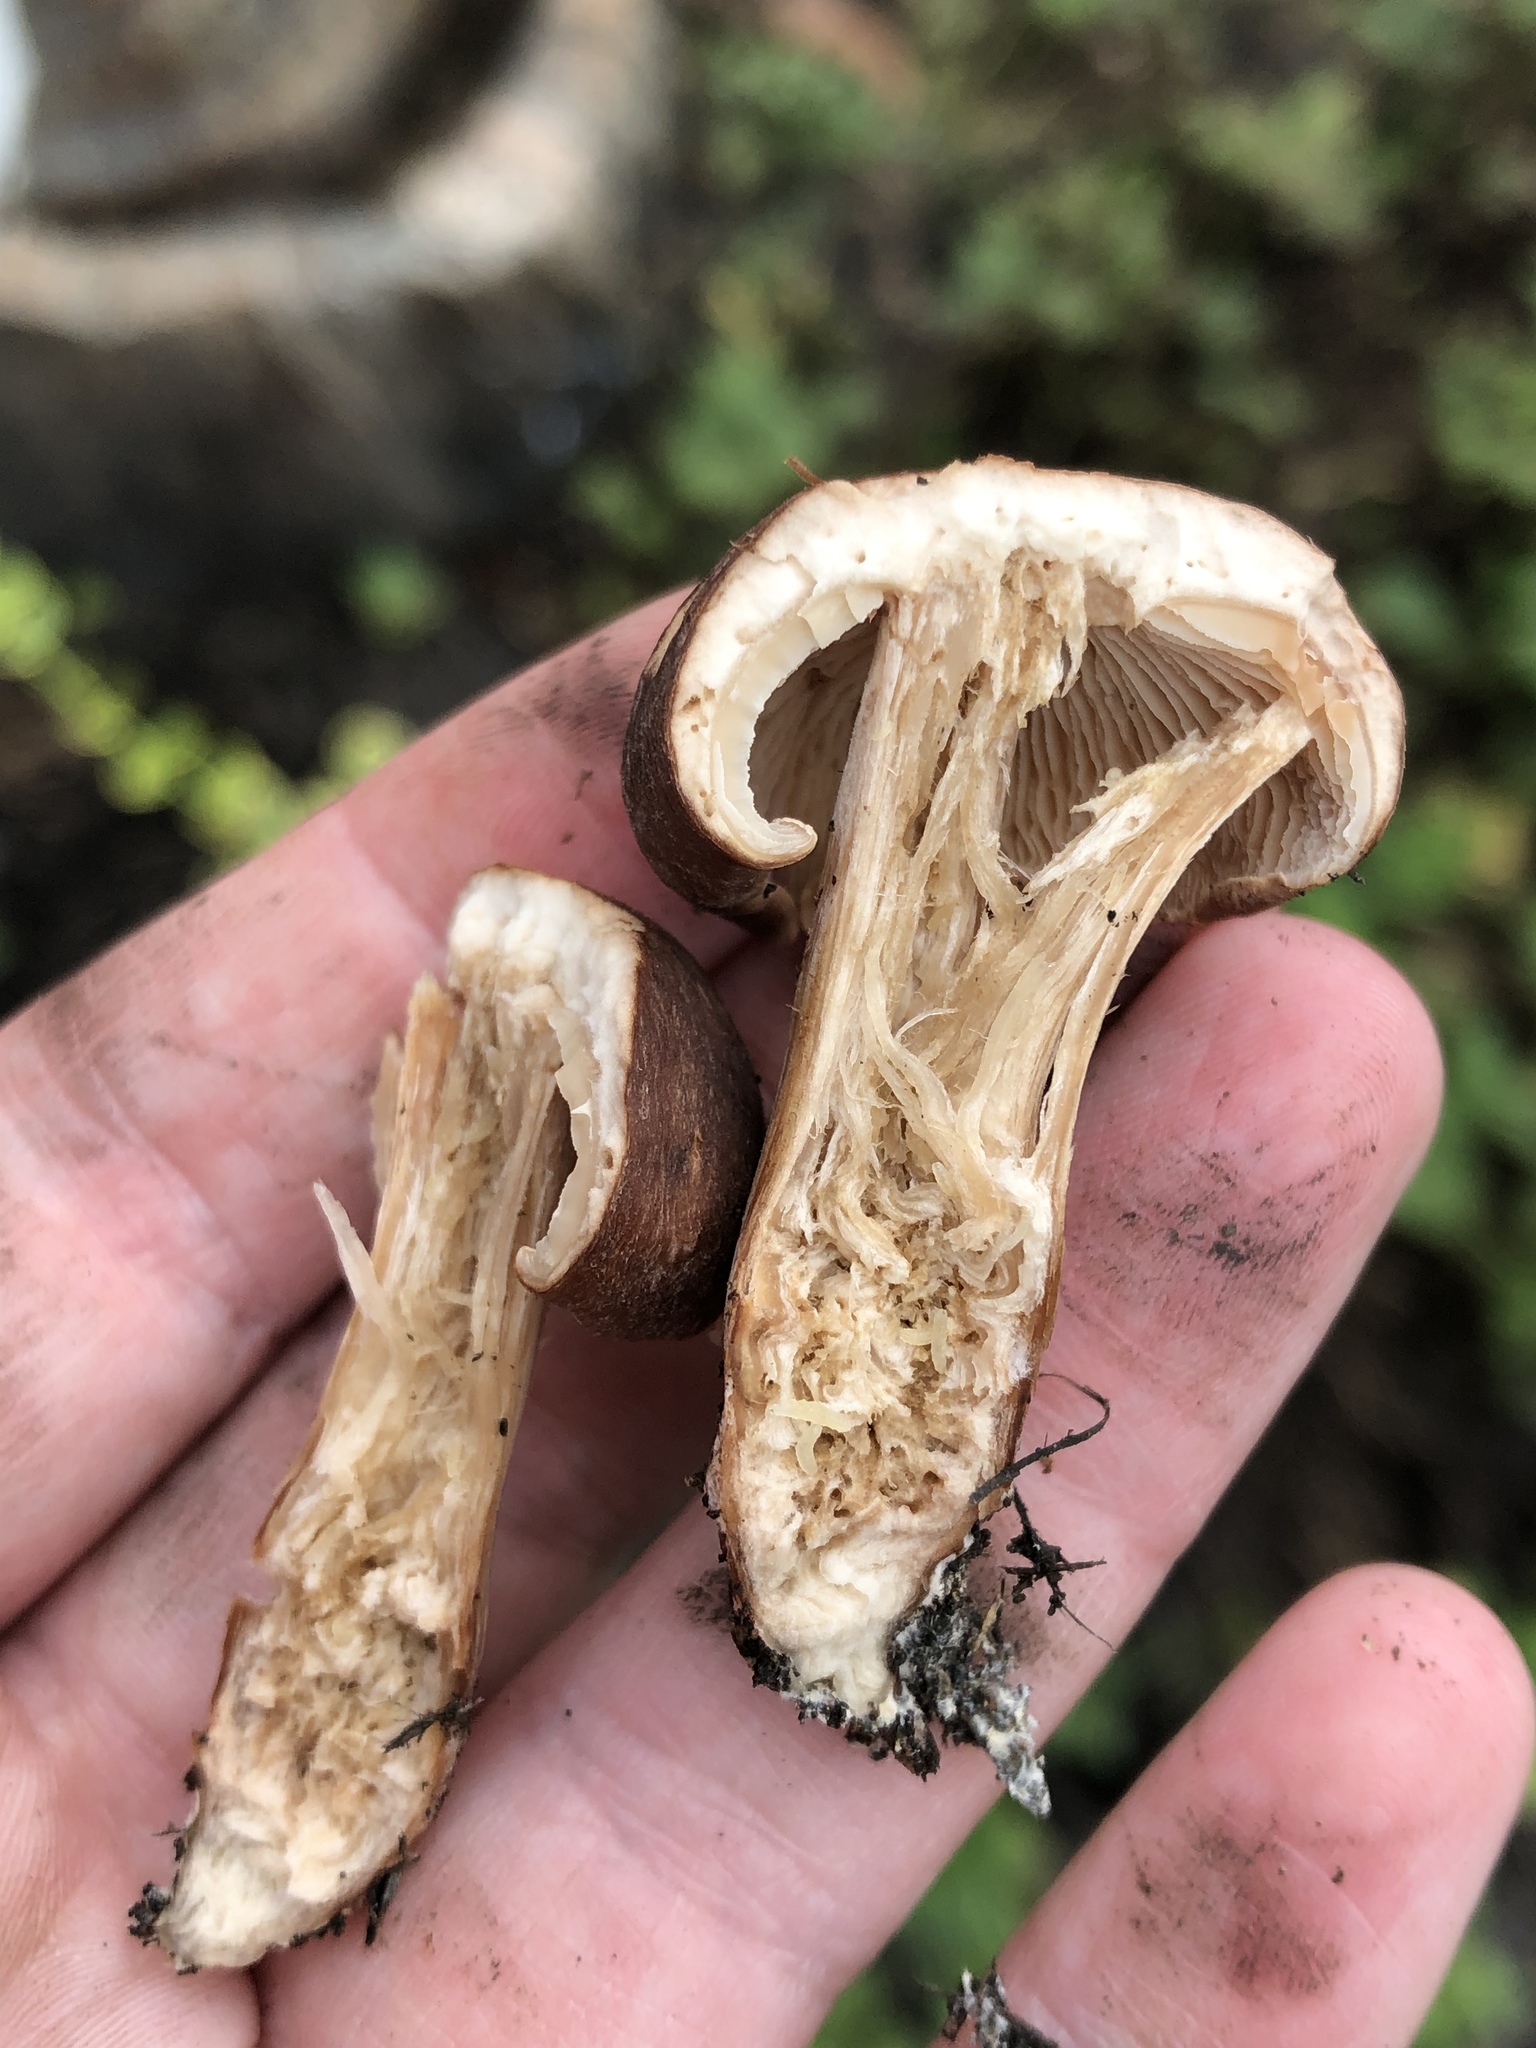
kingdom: Fungi
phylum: Basidiomycota
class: Agaricomycetes
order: Agaricales
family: Omphalotaceae
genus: Collybiopsis
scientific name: Collybiopsis luxurians
